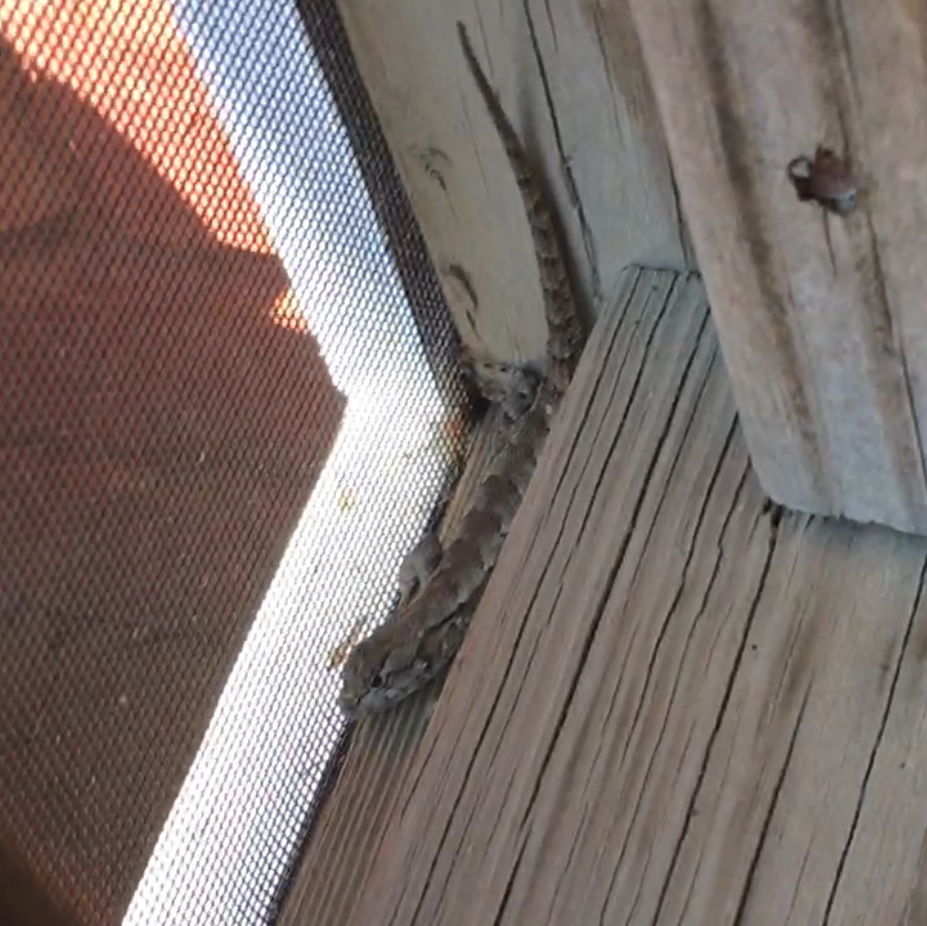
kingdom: Animalia
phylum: Chordata
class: Squamata
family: Phrynosomatidae
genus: Sceloporus
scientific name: Sceloporus undulatus
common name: Eastern fence lizard
